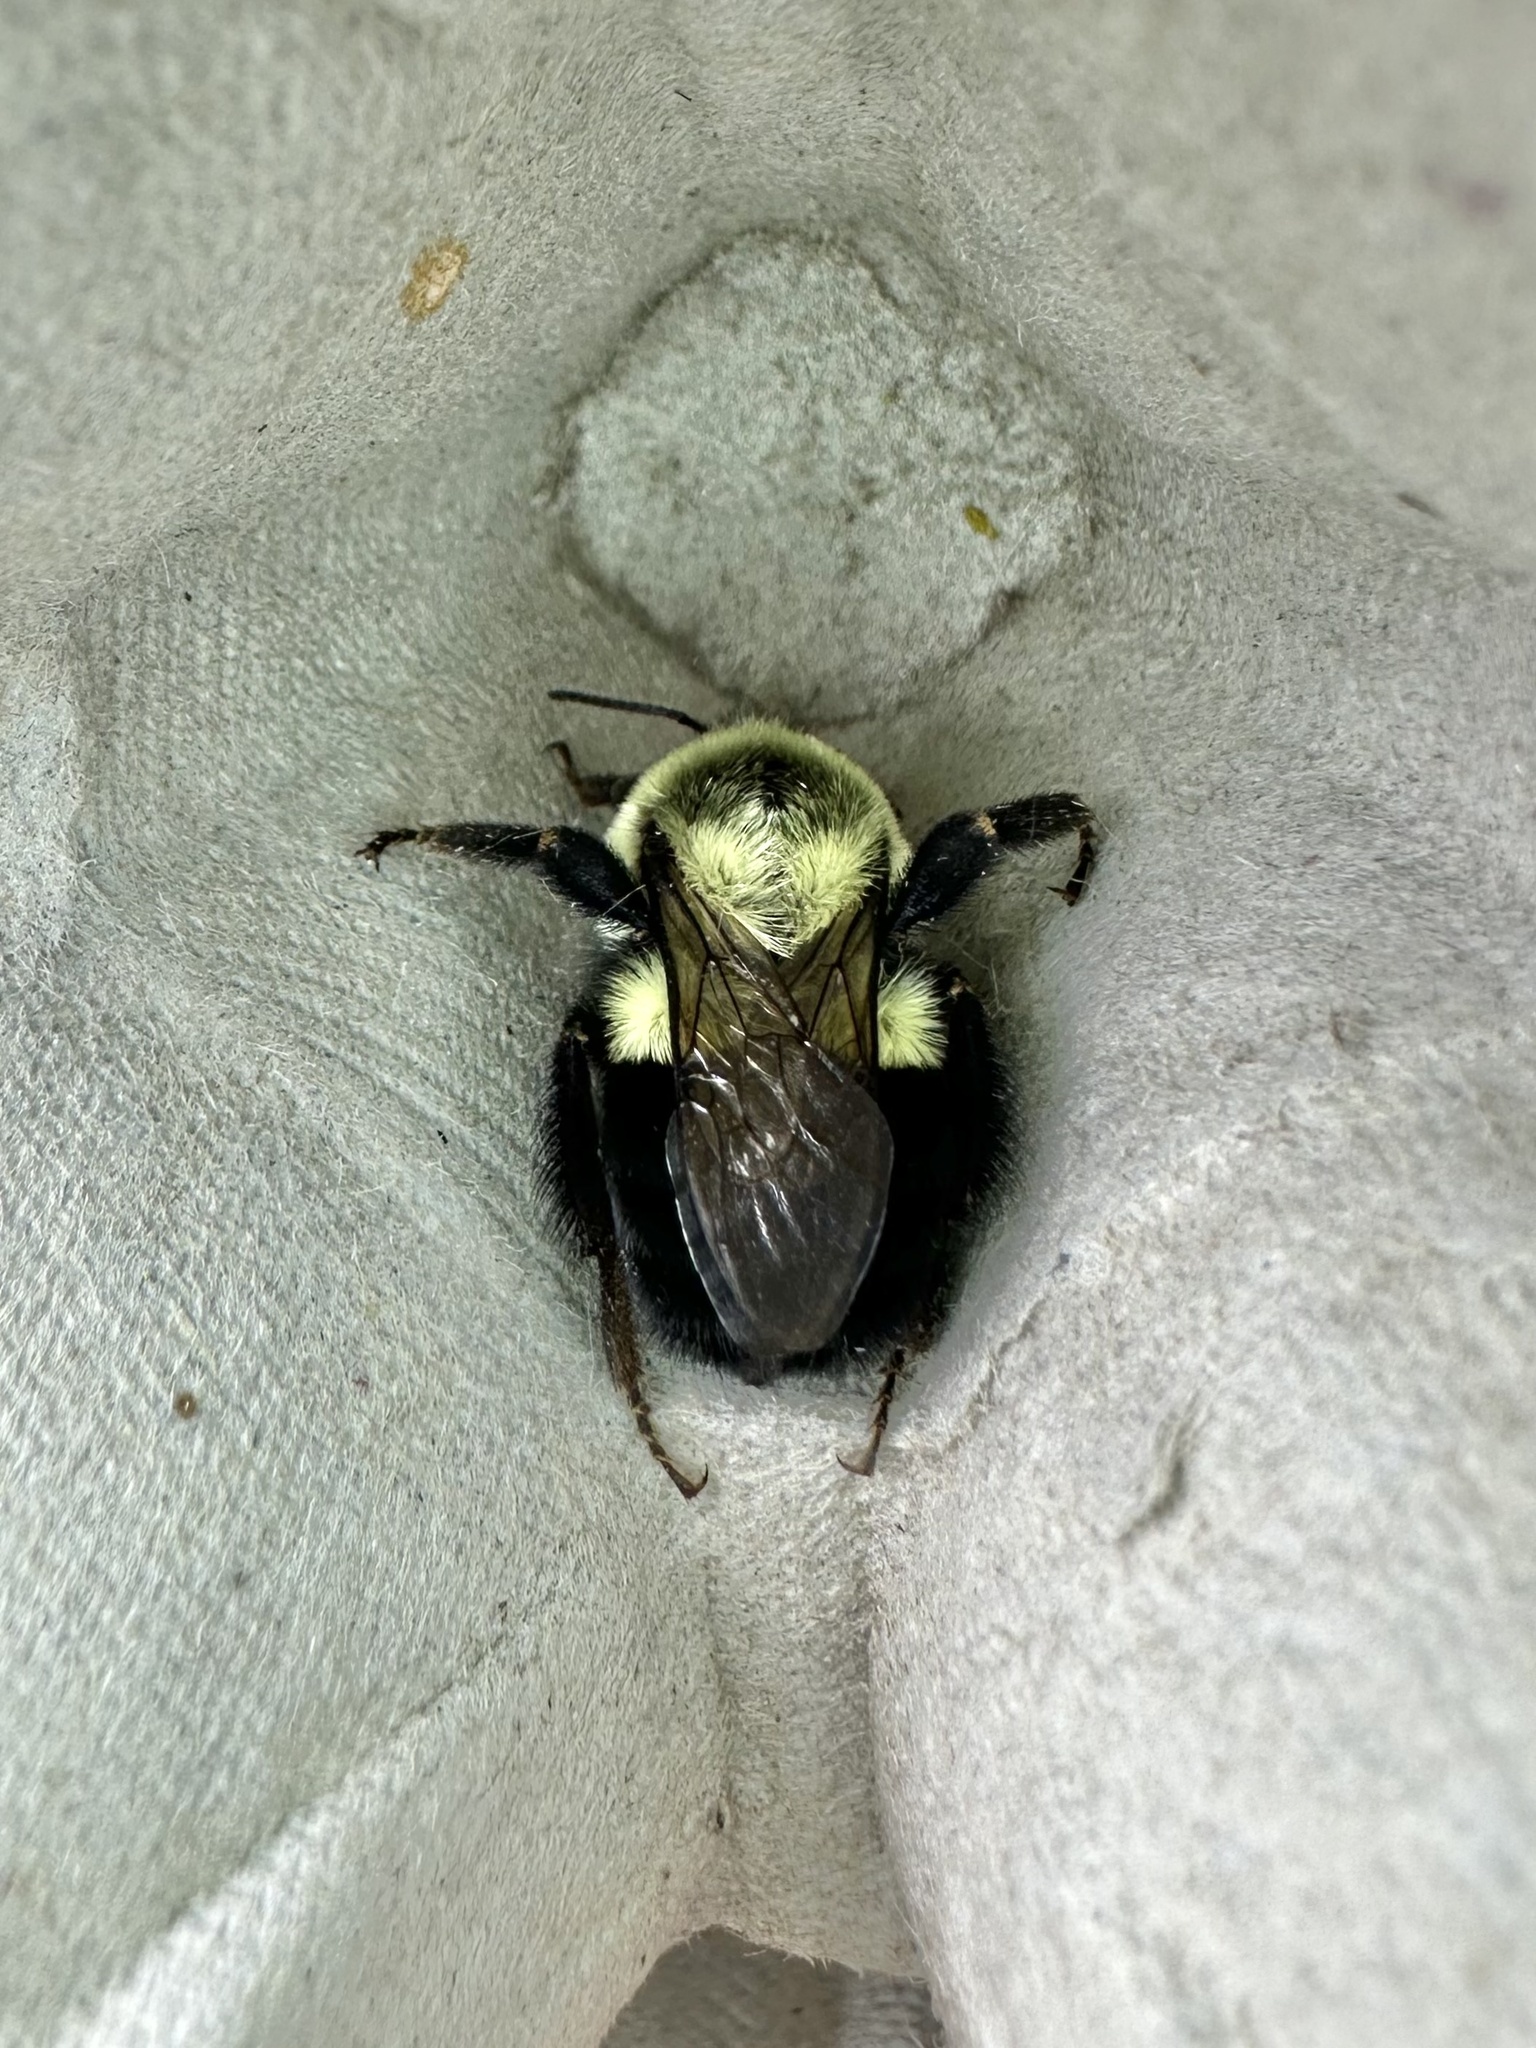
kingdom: Animalia
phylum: Arthropoda
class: Insecta
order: Hymenoptera
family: Apidae
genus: Bombus
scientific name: Bombus impatiens
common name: Common eastern bumble bee
